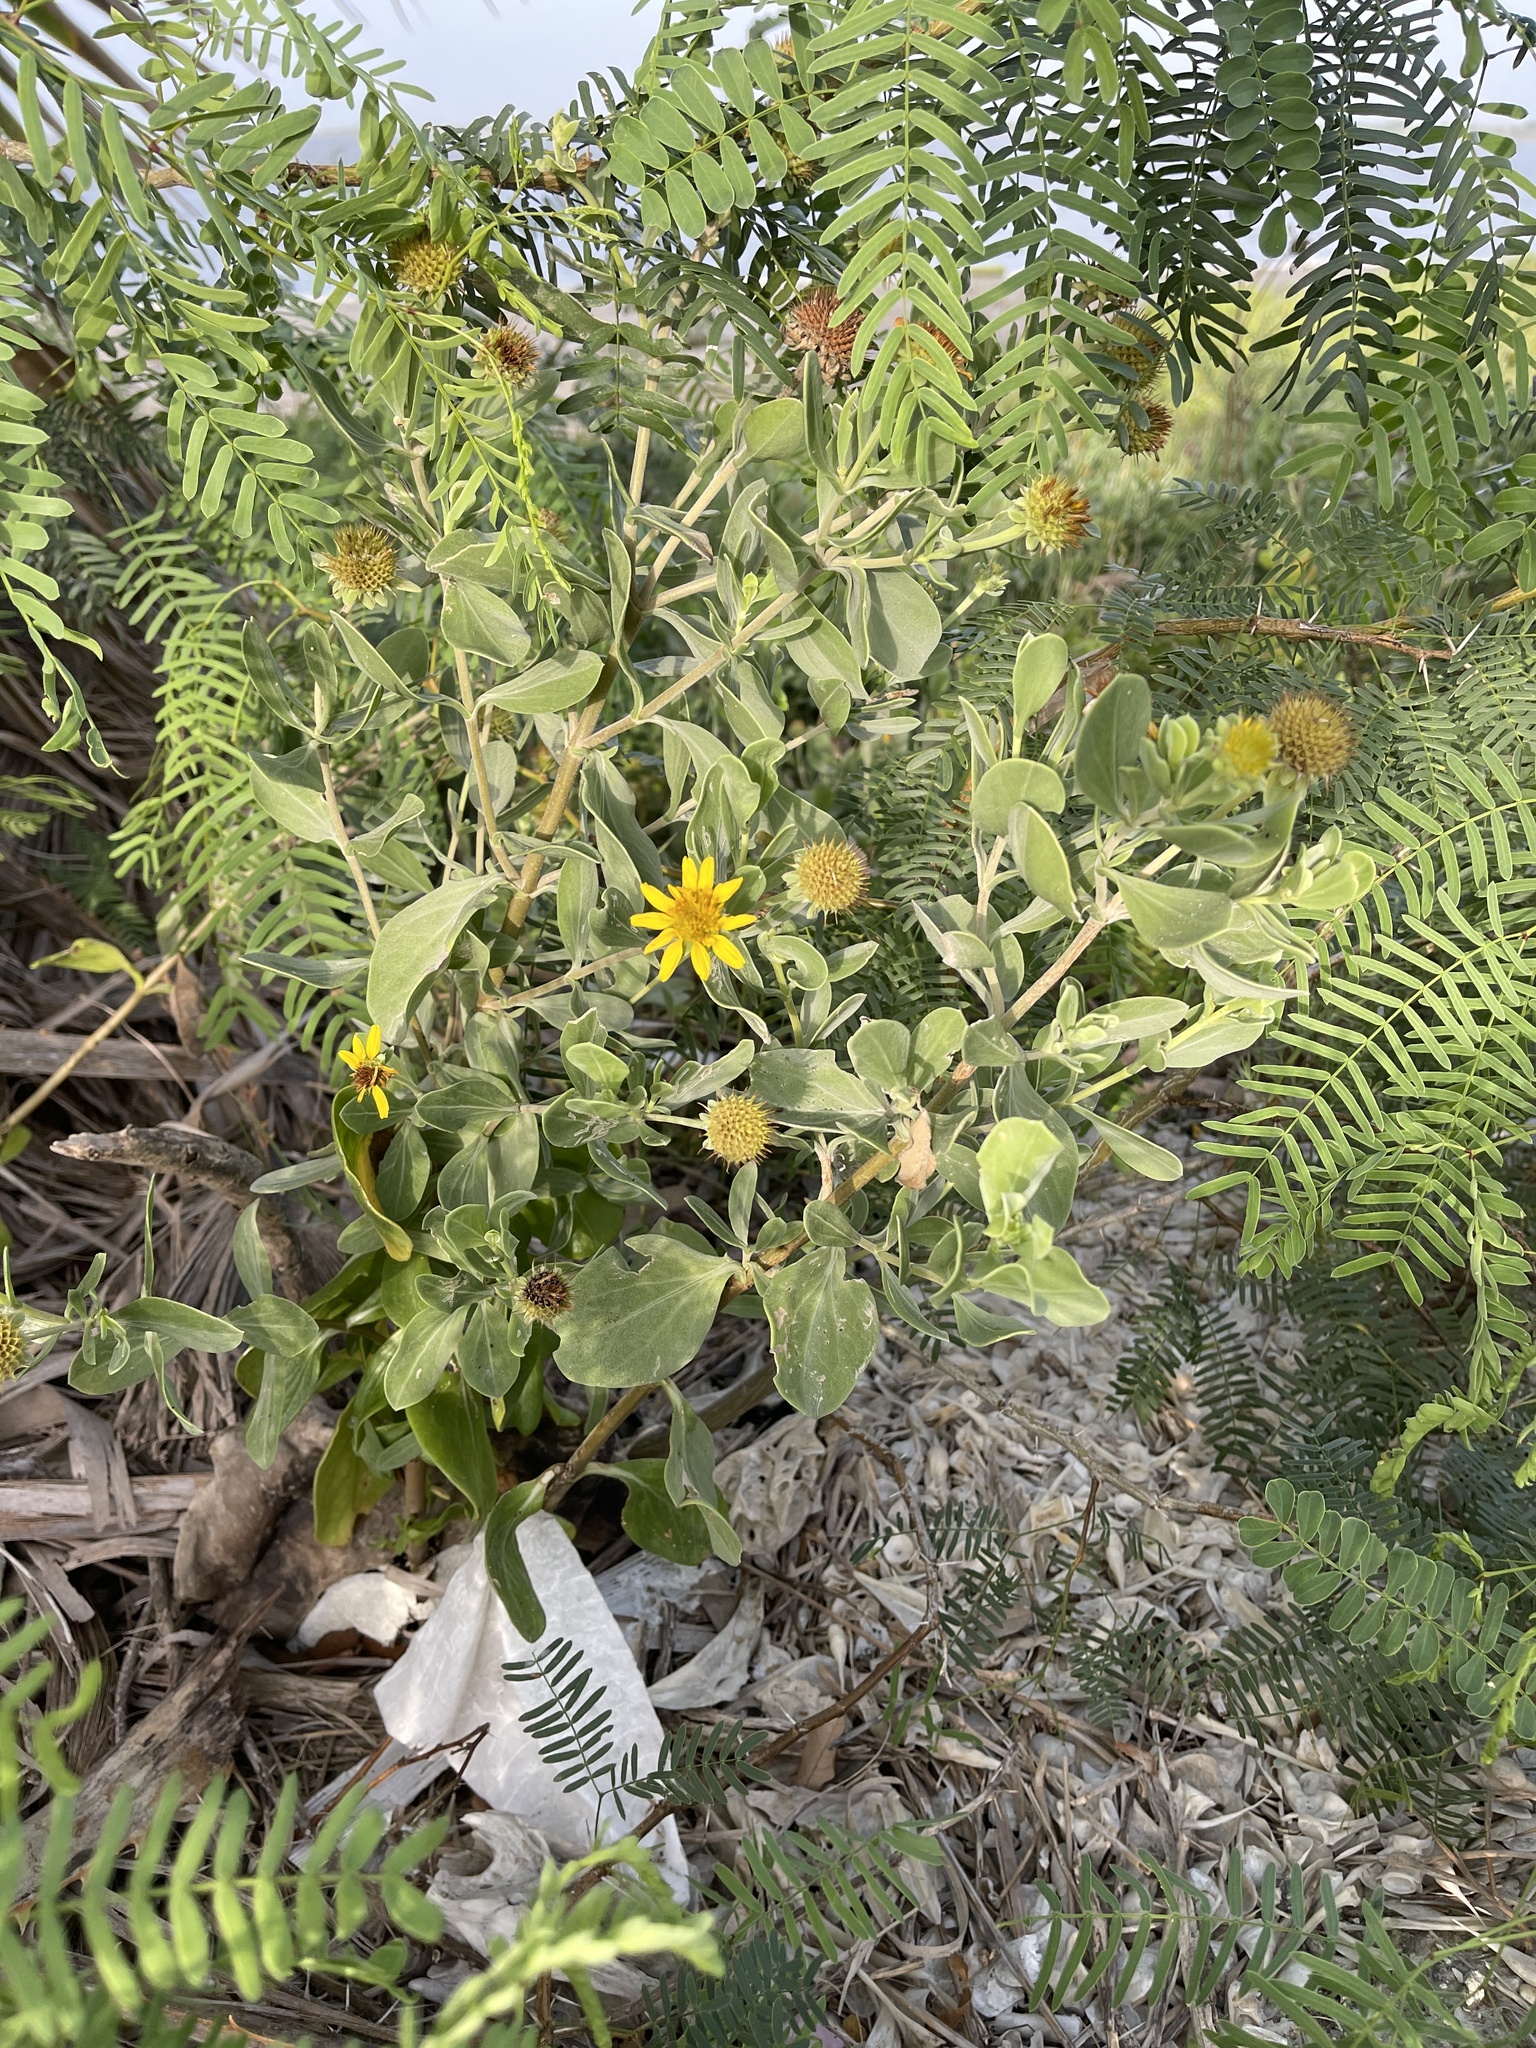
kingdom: Plantae
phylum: Tracheophyta
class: Magnoliopsida
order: Asterales
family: Asteraceae
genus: Borrichia
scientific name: Borrichia frutescens
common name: Sea oxeye
